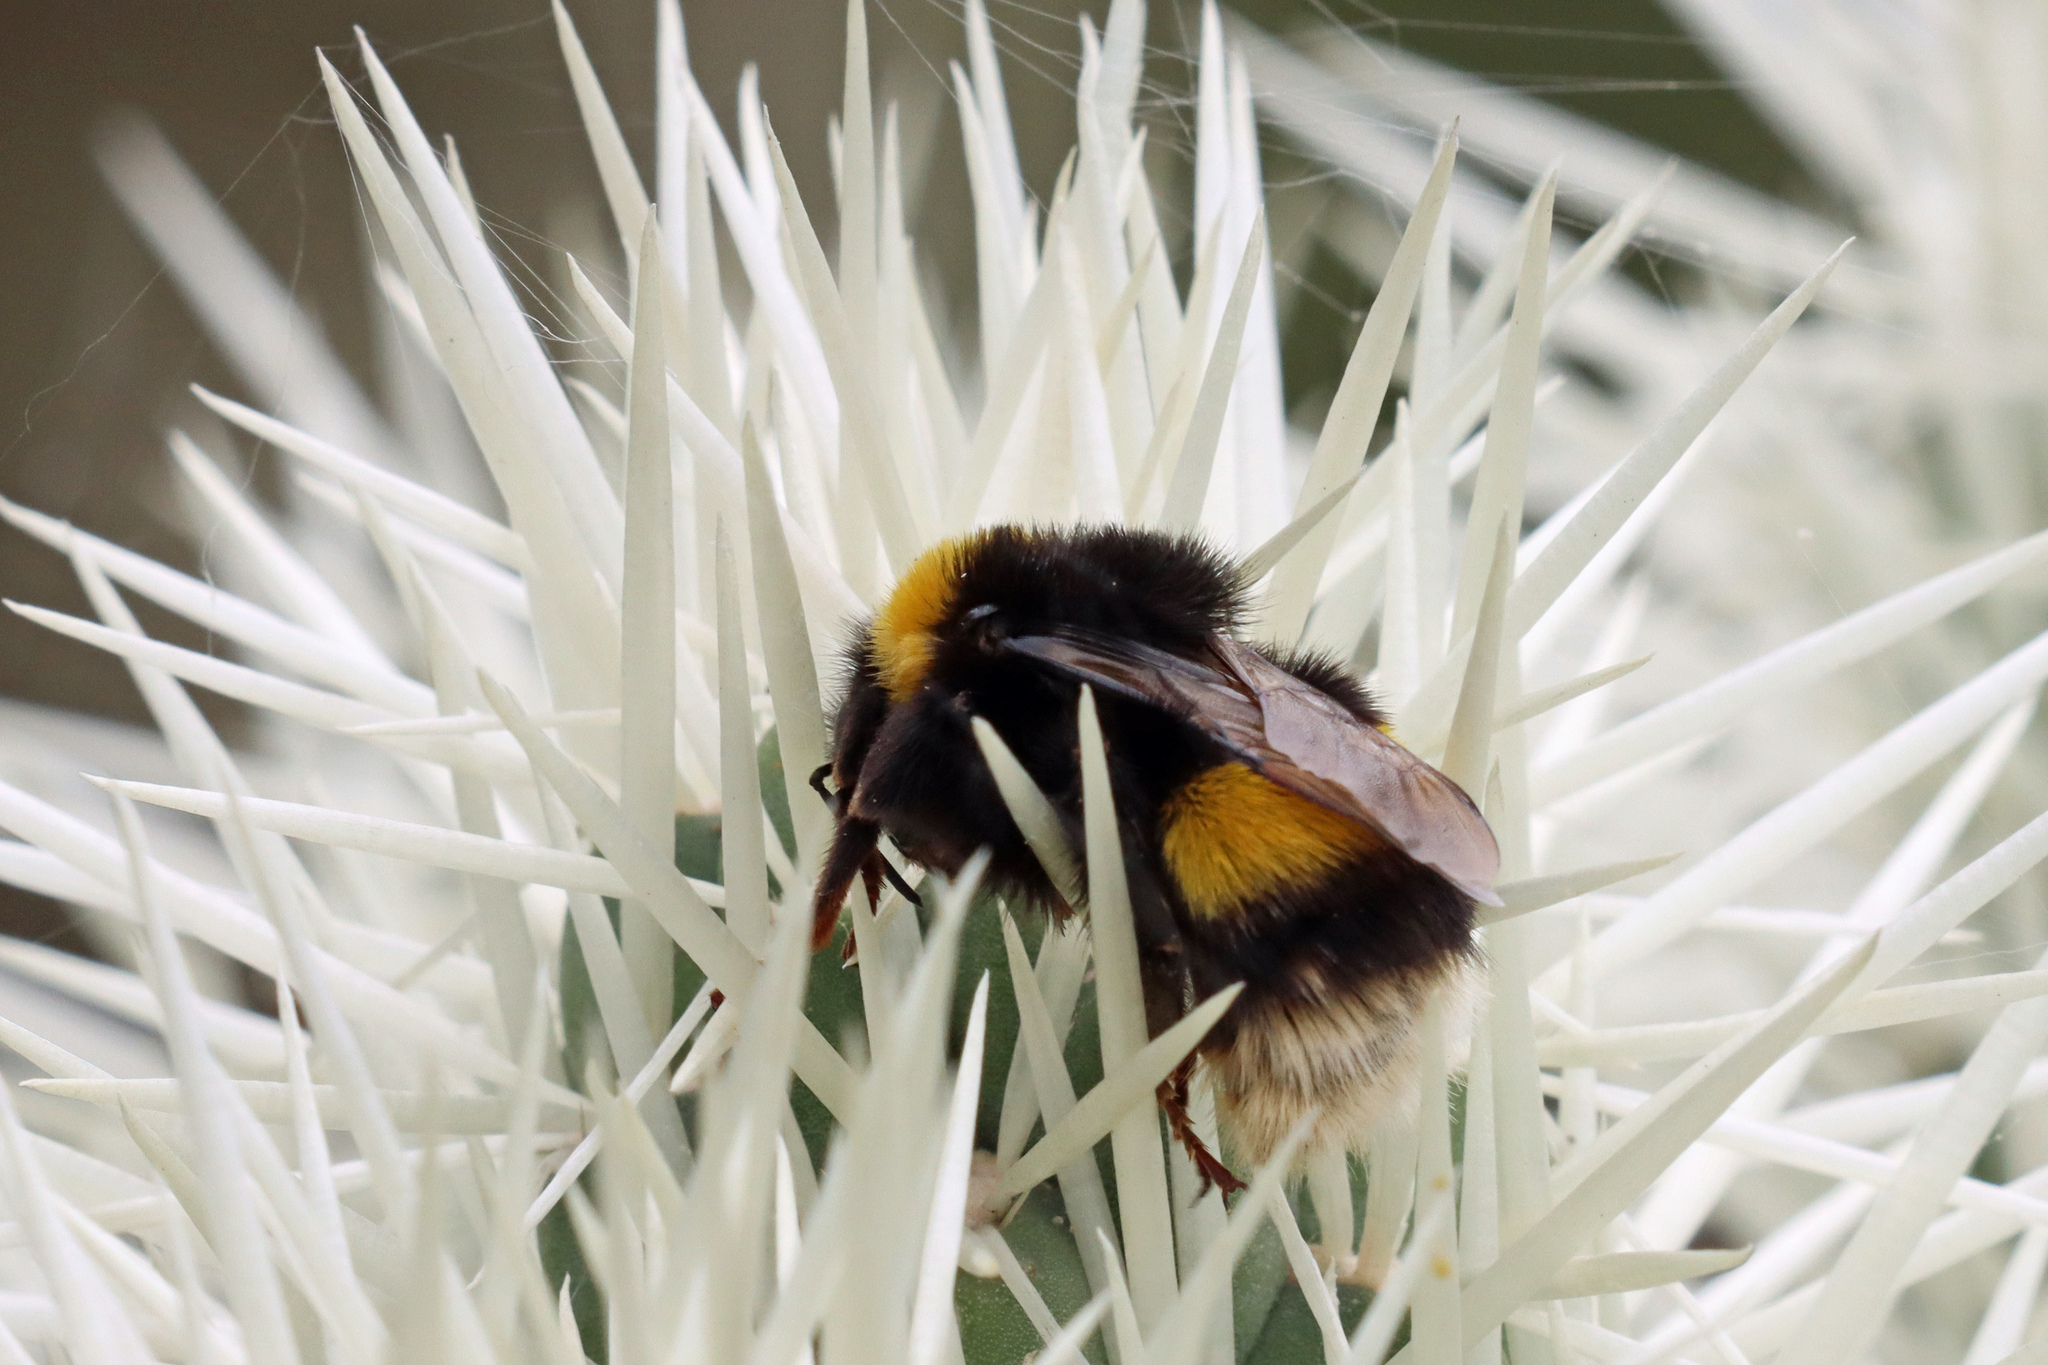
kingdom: Animalia
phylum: Arthropoda
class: Insecta
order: Hymenoptera
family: Apidae
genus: Bombus
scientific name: Bombus terrestris
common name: Buff-tailed bumblebee
